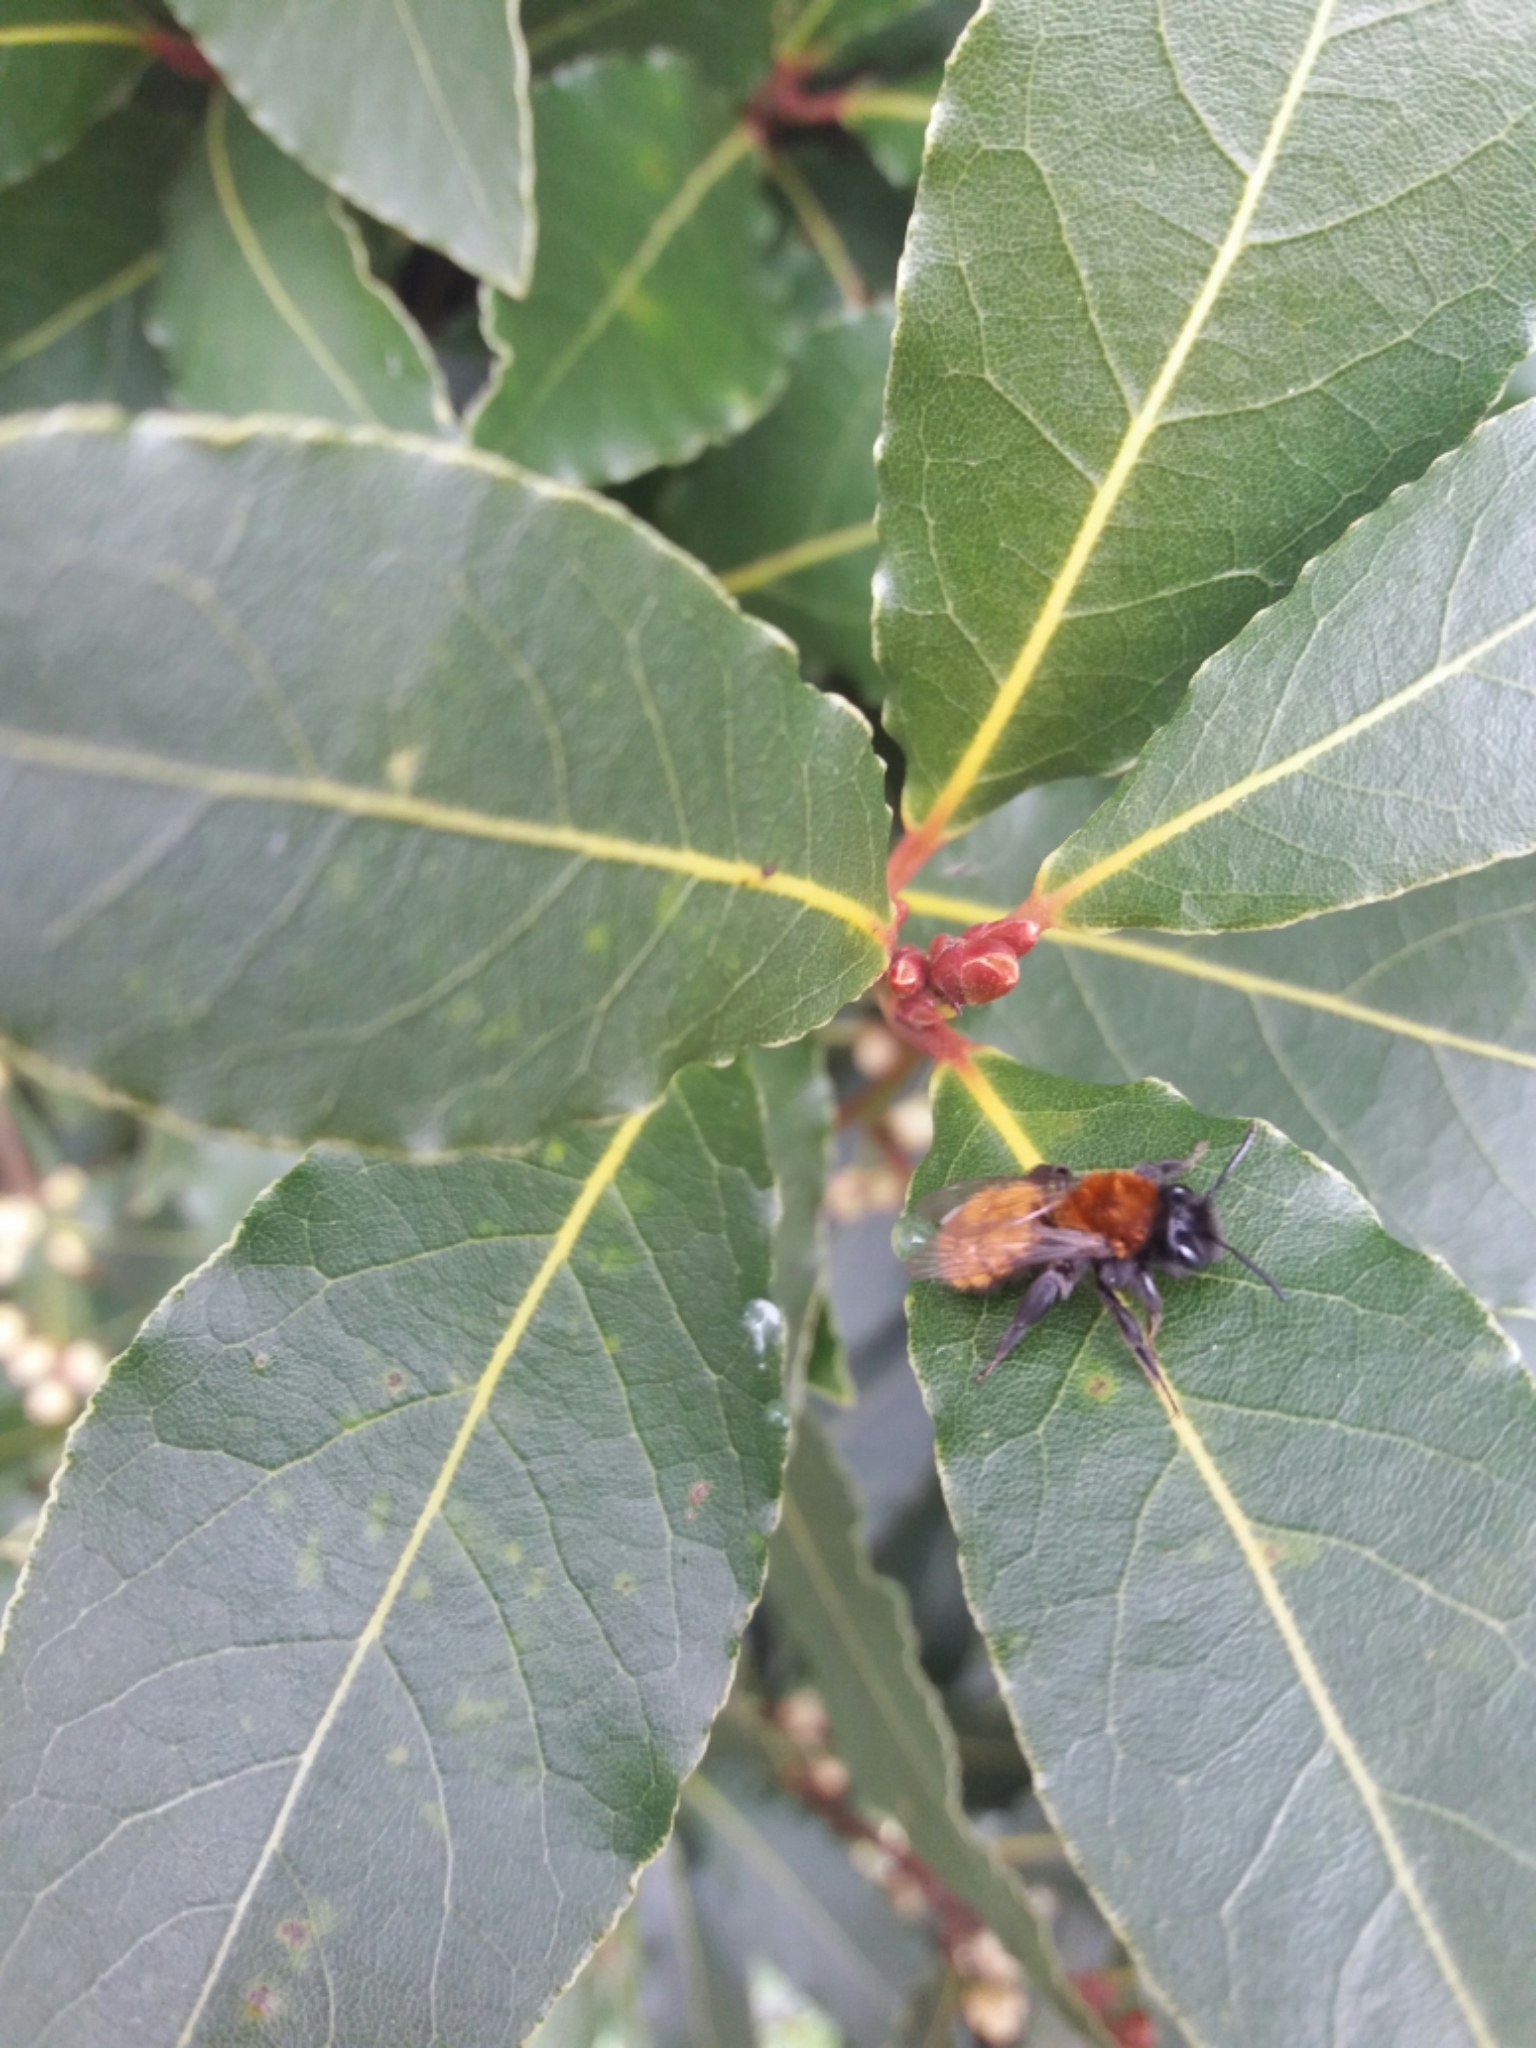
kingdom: Animalia
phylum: Arthropoda
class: Insecta
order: Hymenoptera
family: Andrenidae
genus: Andrena
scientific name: Andrena fulva
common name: Tawny mining bee
